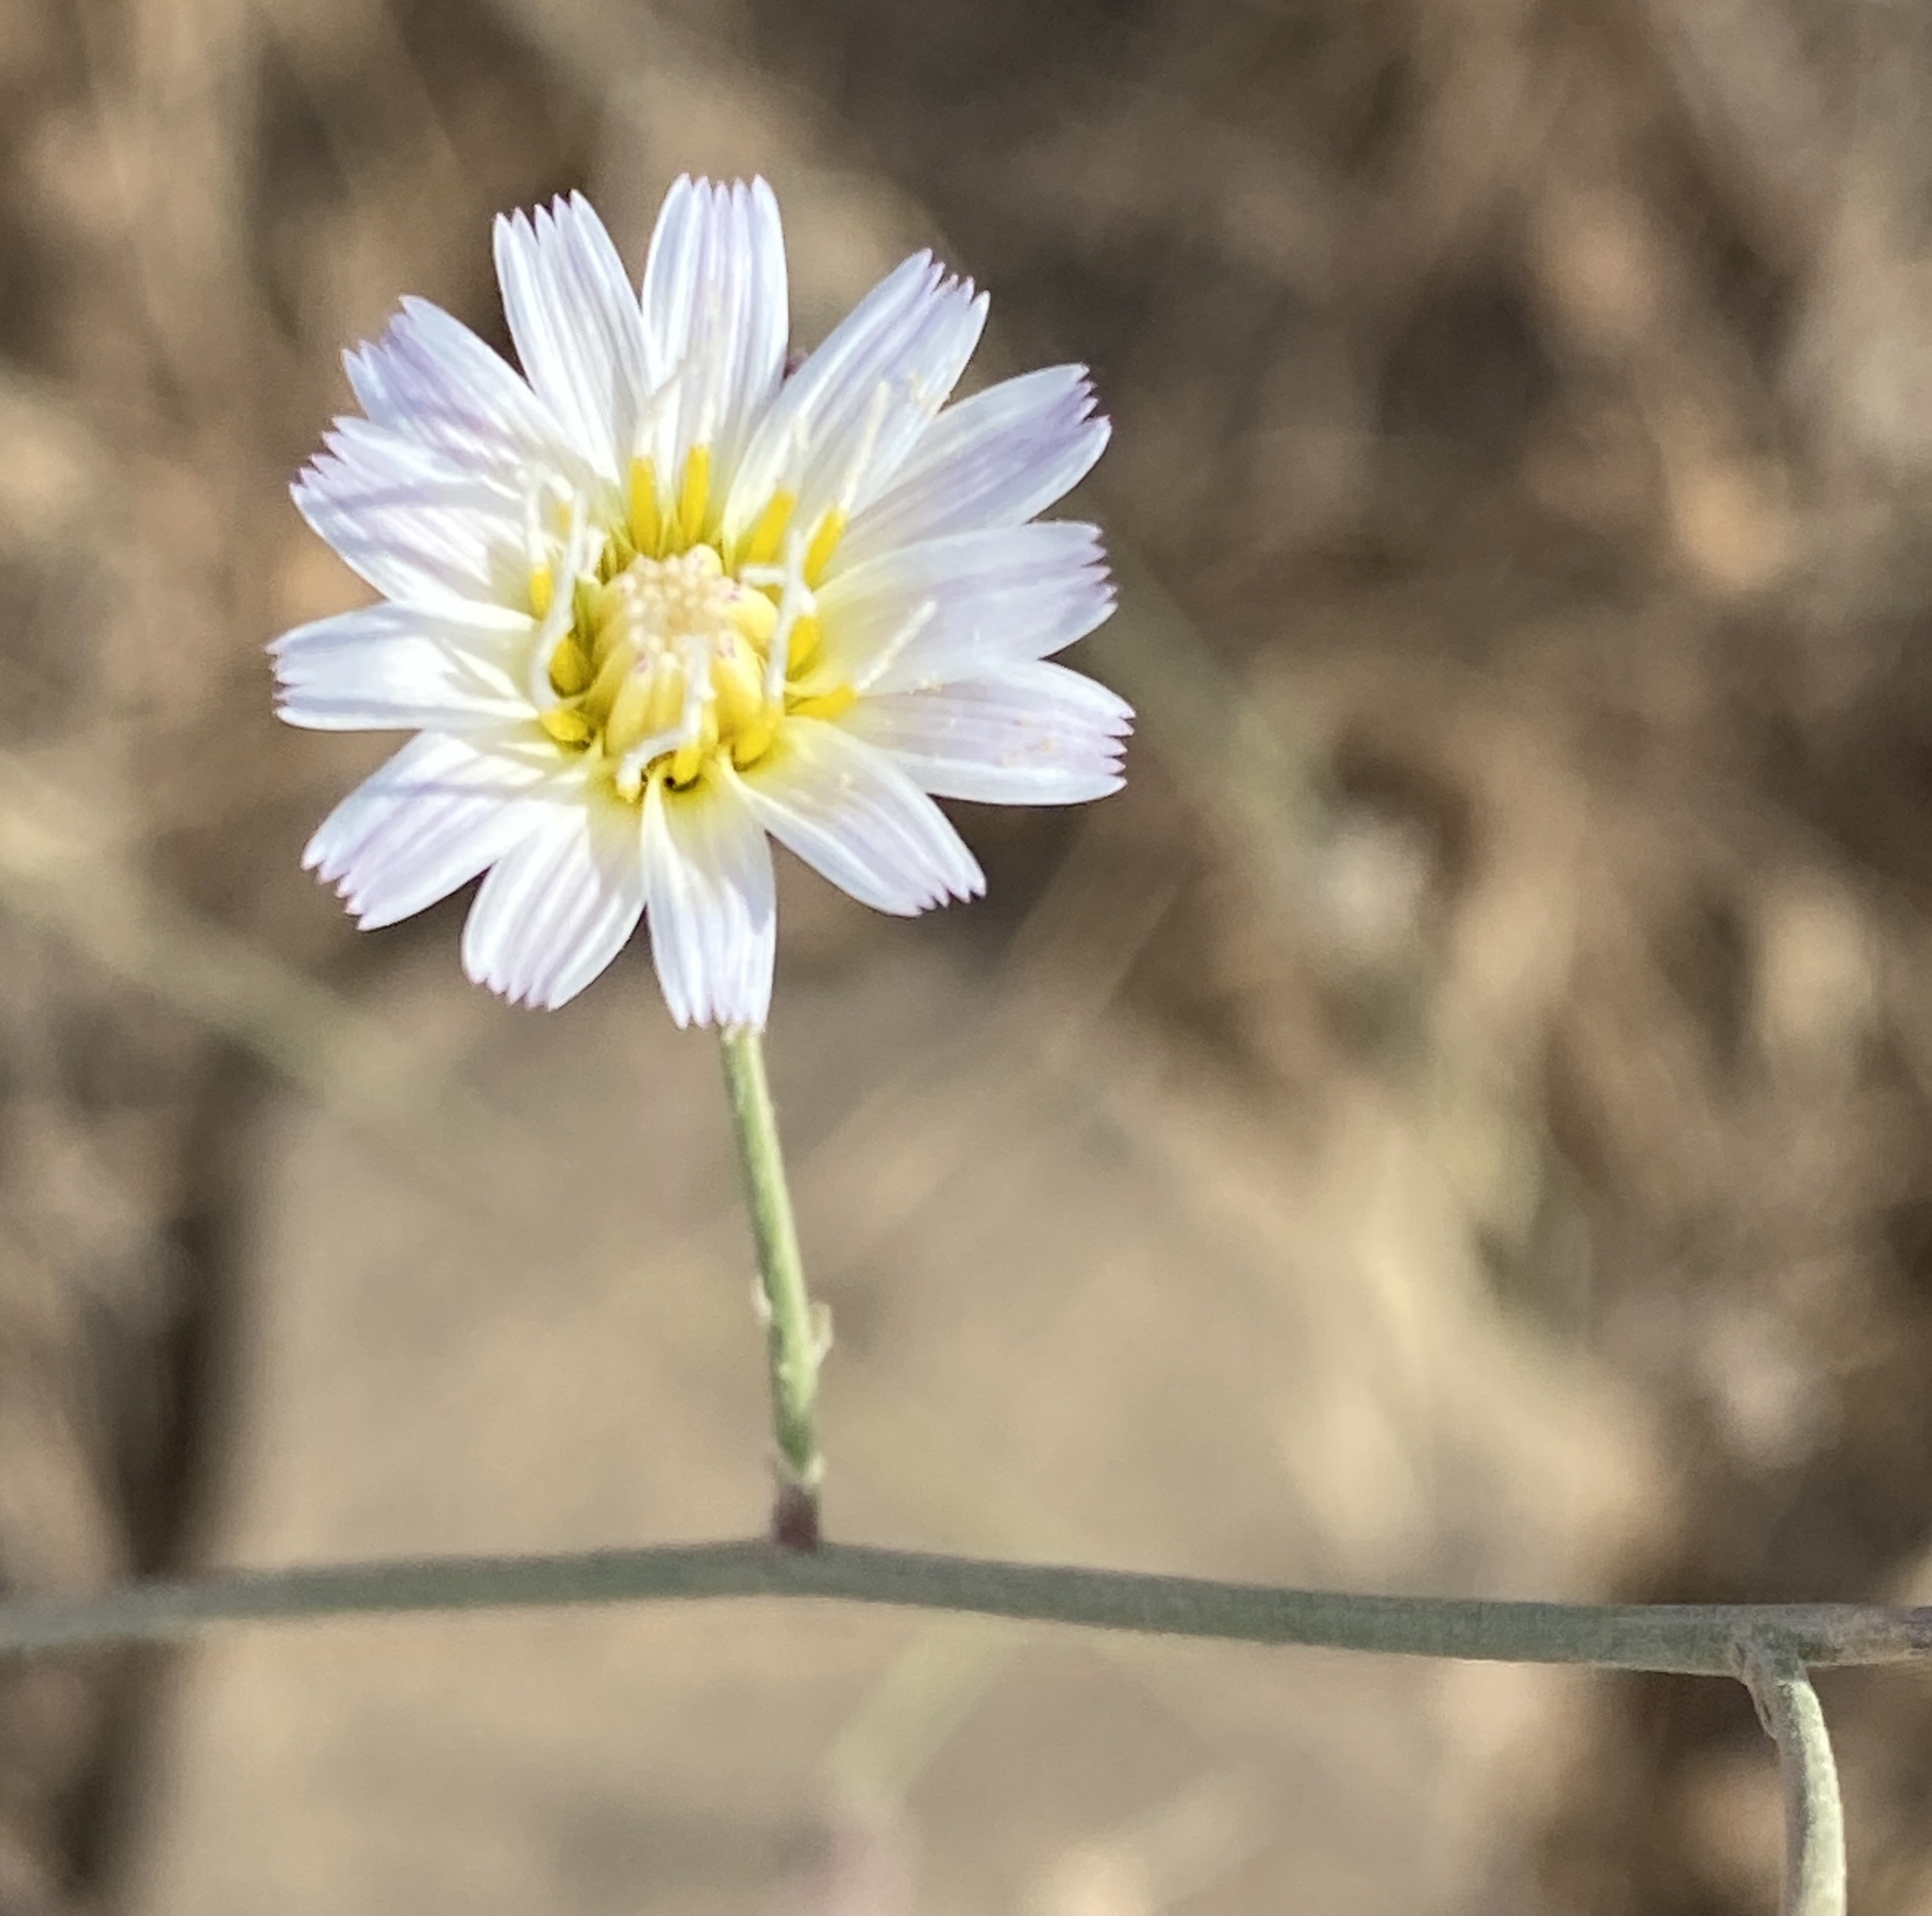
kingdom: Plantae
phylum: Tracheophyta
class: Magnoliopsida
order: Asterales
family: Asteraceae
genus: Malacothrix
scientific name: Malacothrix saxatilis
